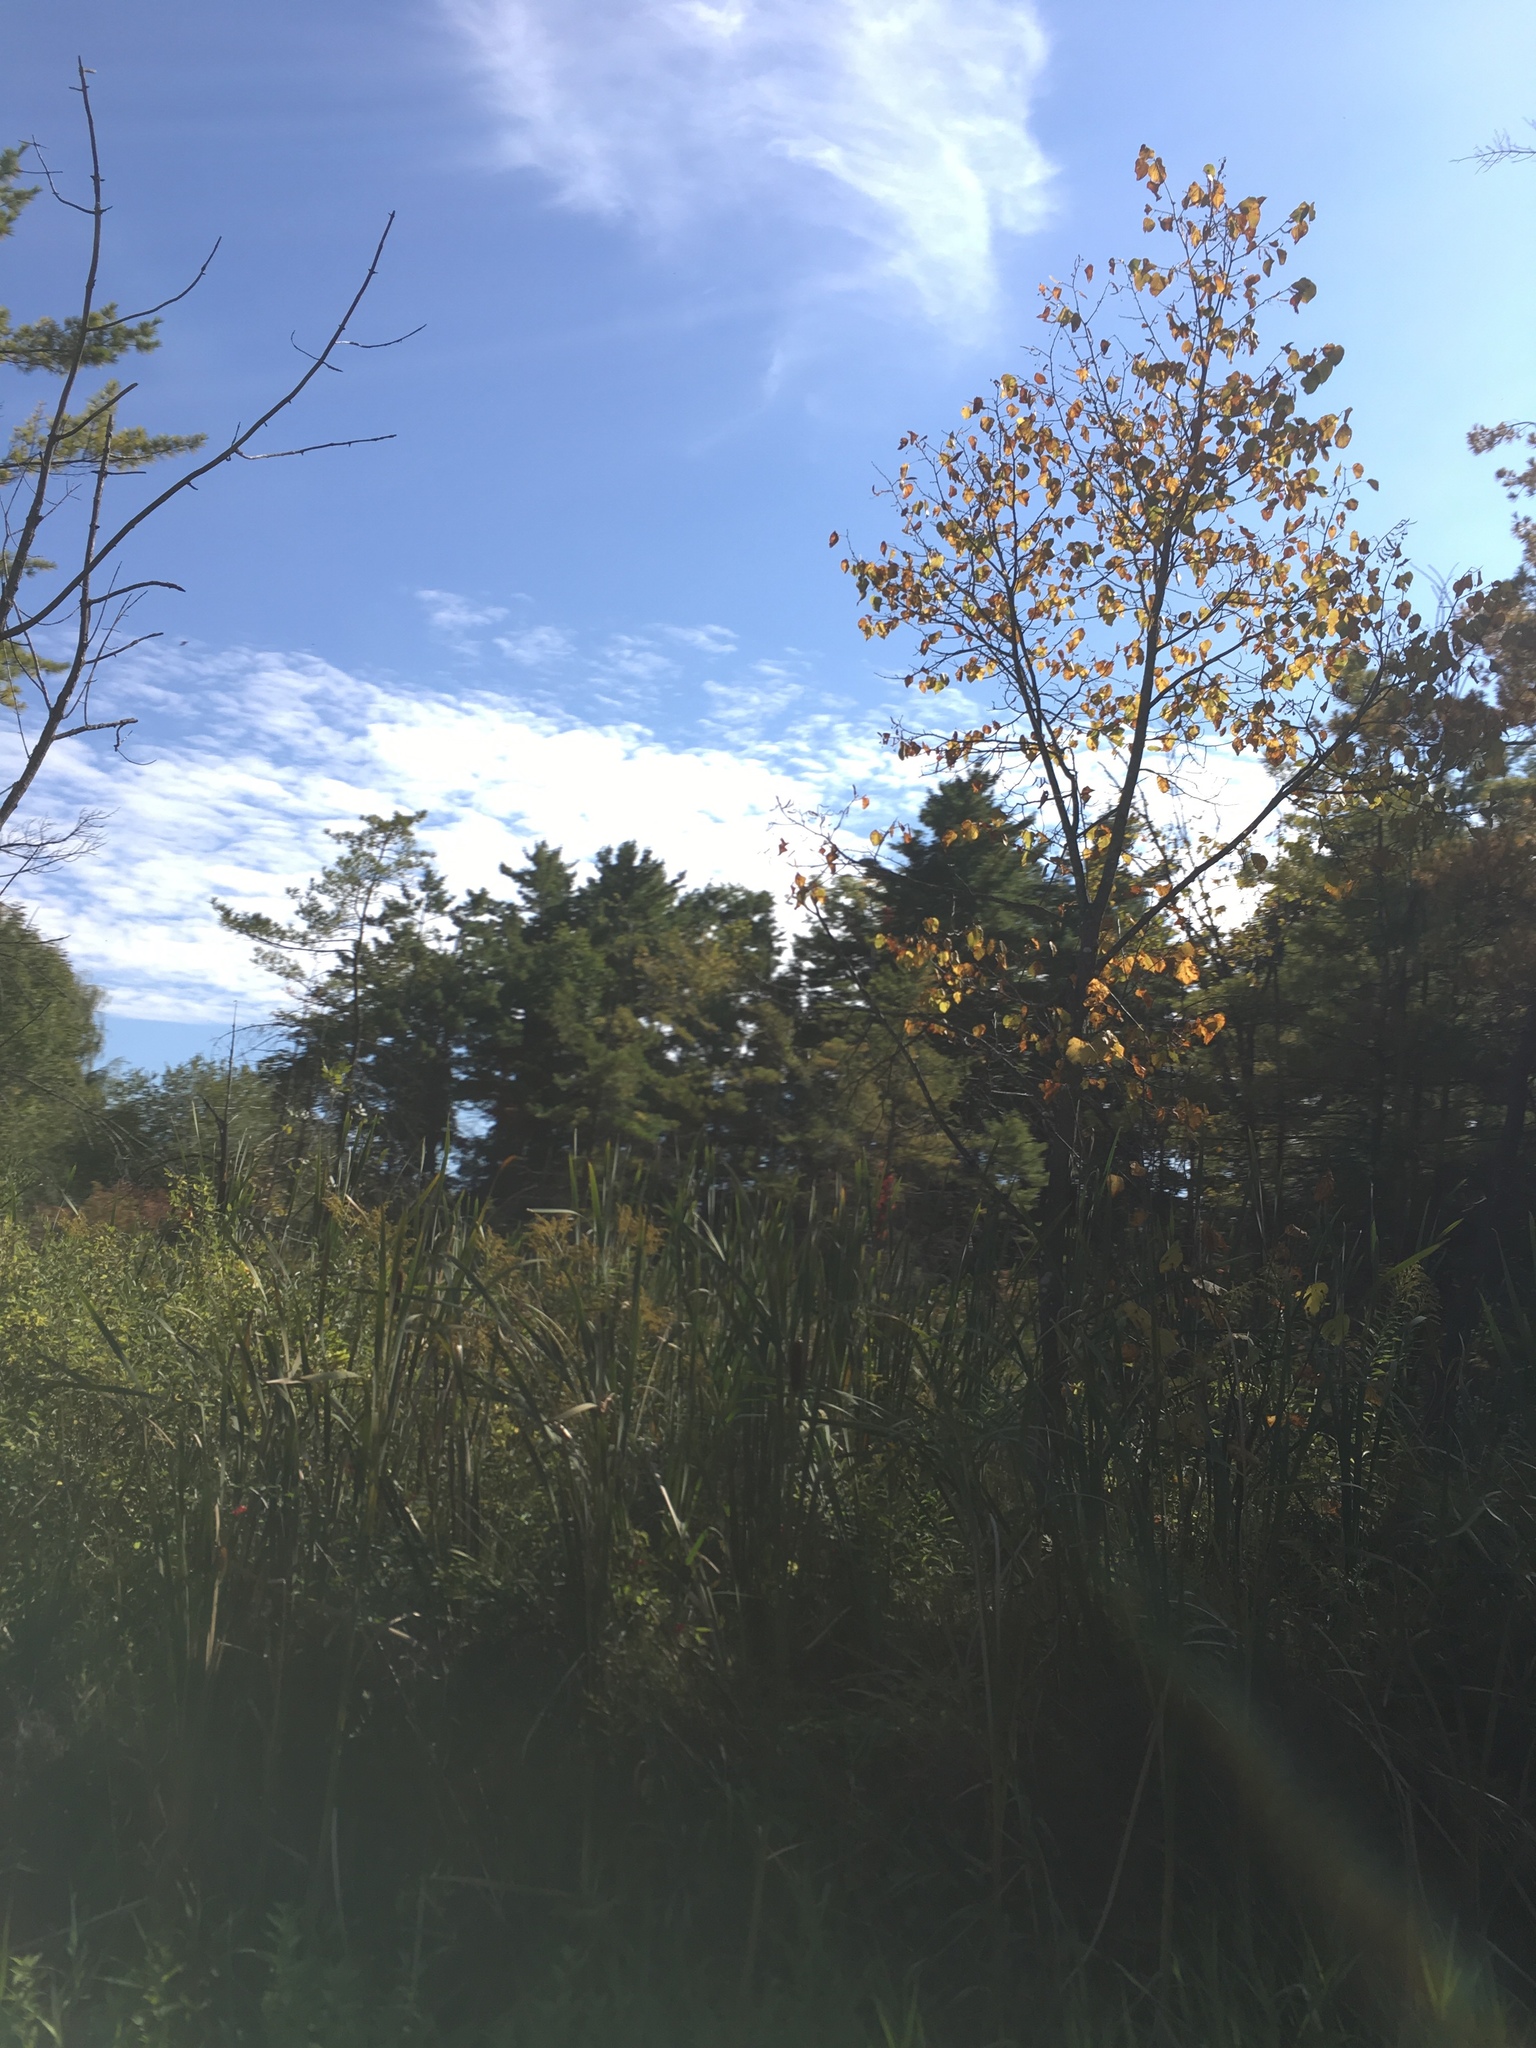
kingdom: Plantae
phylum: Tracheophyta
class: Magnoliopsida
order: Malvales
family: Malvaceae
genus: Tilia
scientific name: Tilia americana
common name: Basswood
